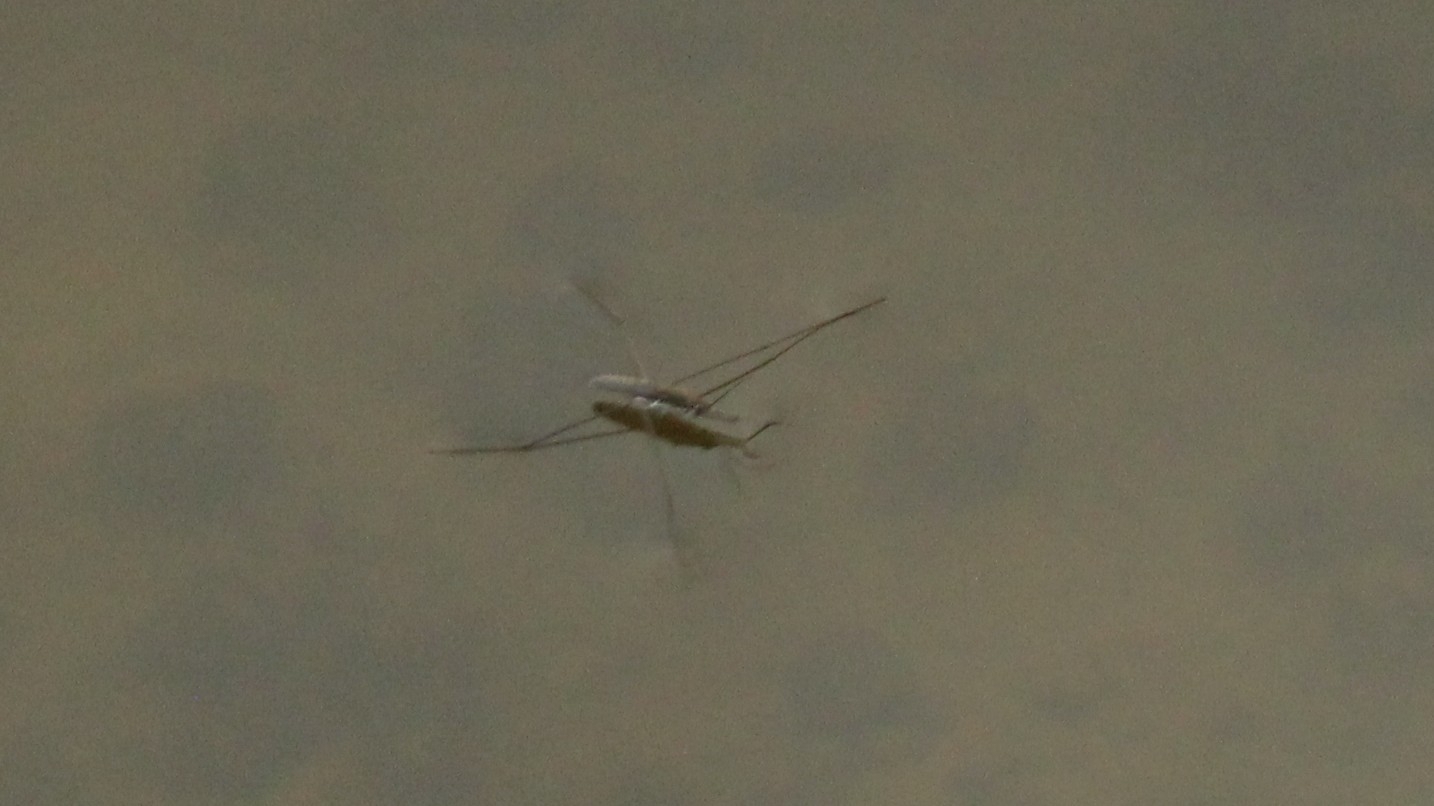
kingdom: Animalia
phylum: Arthropoda
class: Insecta
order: Hemiptera
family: Gerridae
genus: Aquarius
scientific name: Aquarius paludum
